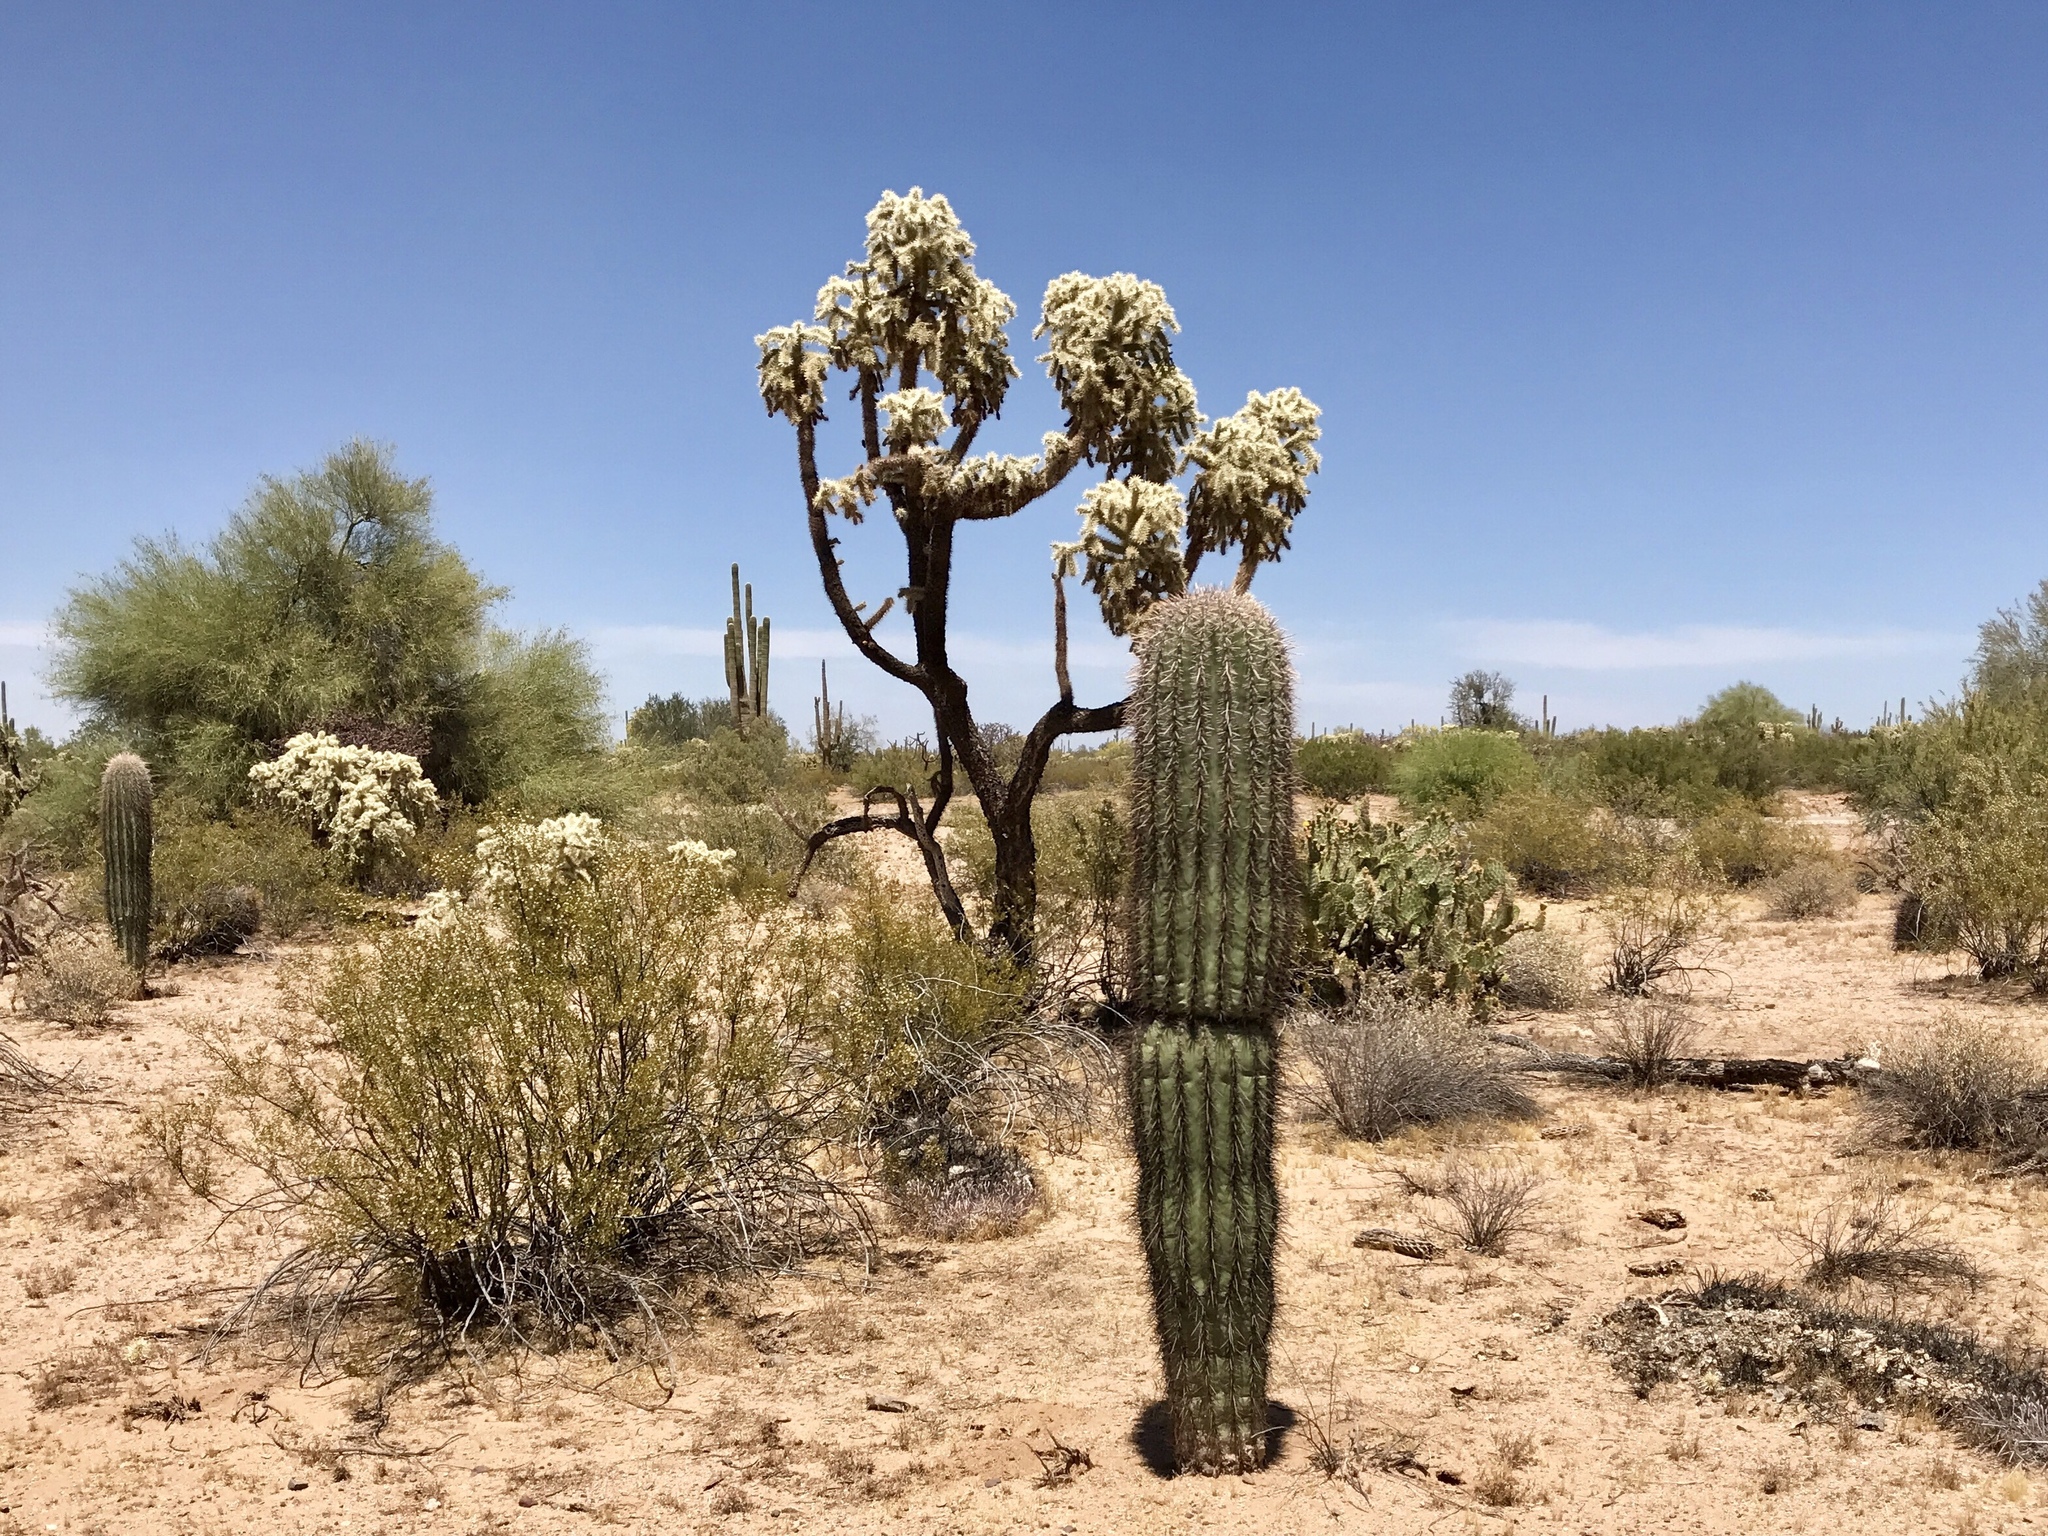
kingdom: Plantae
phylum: Tracheophyta
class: Magnoliopsida
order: Caryophyllales
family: Cactaceae
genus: Cylindropuntia
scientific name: Cylindropuntia fulgida
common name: Jumping cholla
